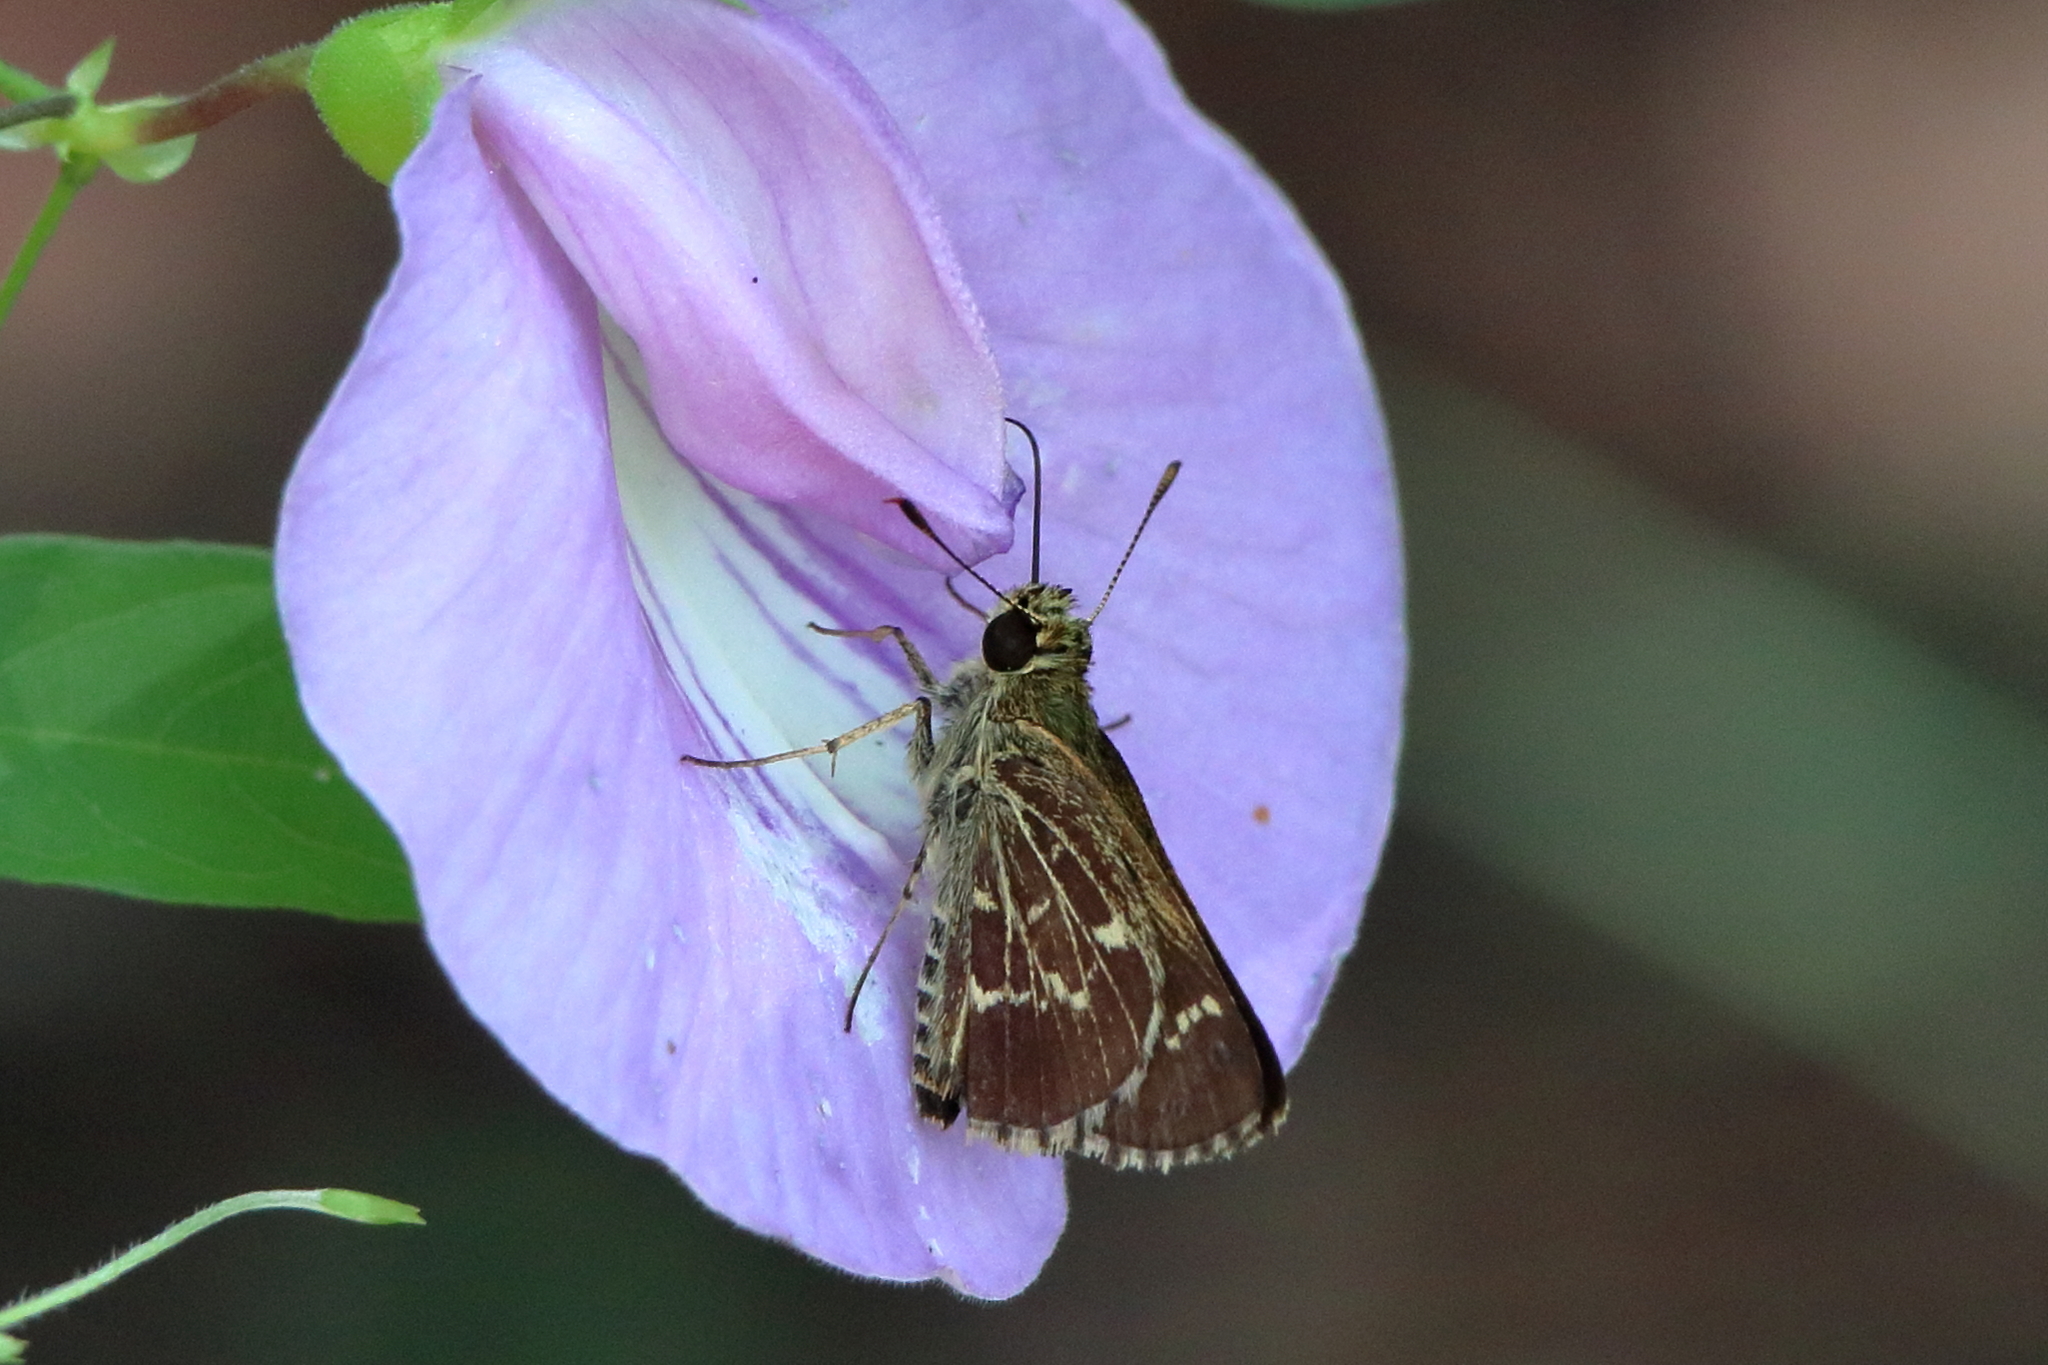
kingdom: Animalia
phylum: Arthropoda
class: Insecta
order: Lepidoptera
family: Hesperiidae
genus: Mastor
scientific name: Mastor aesculapius
